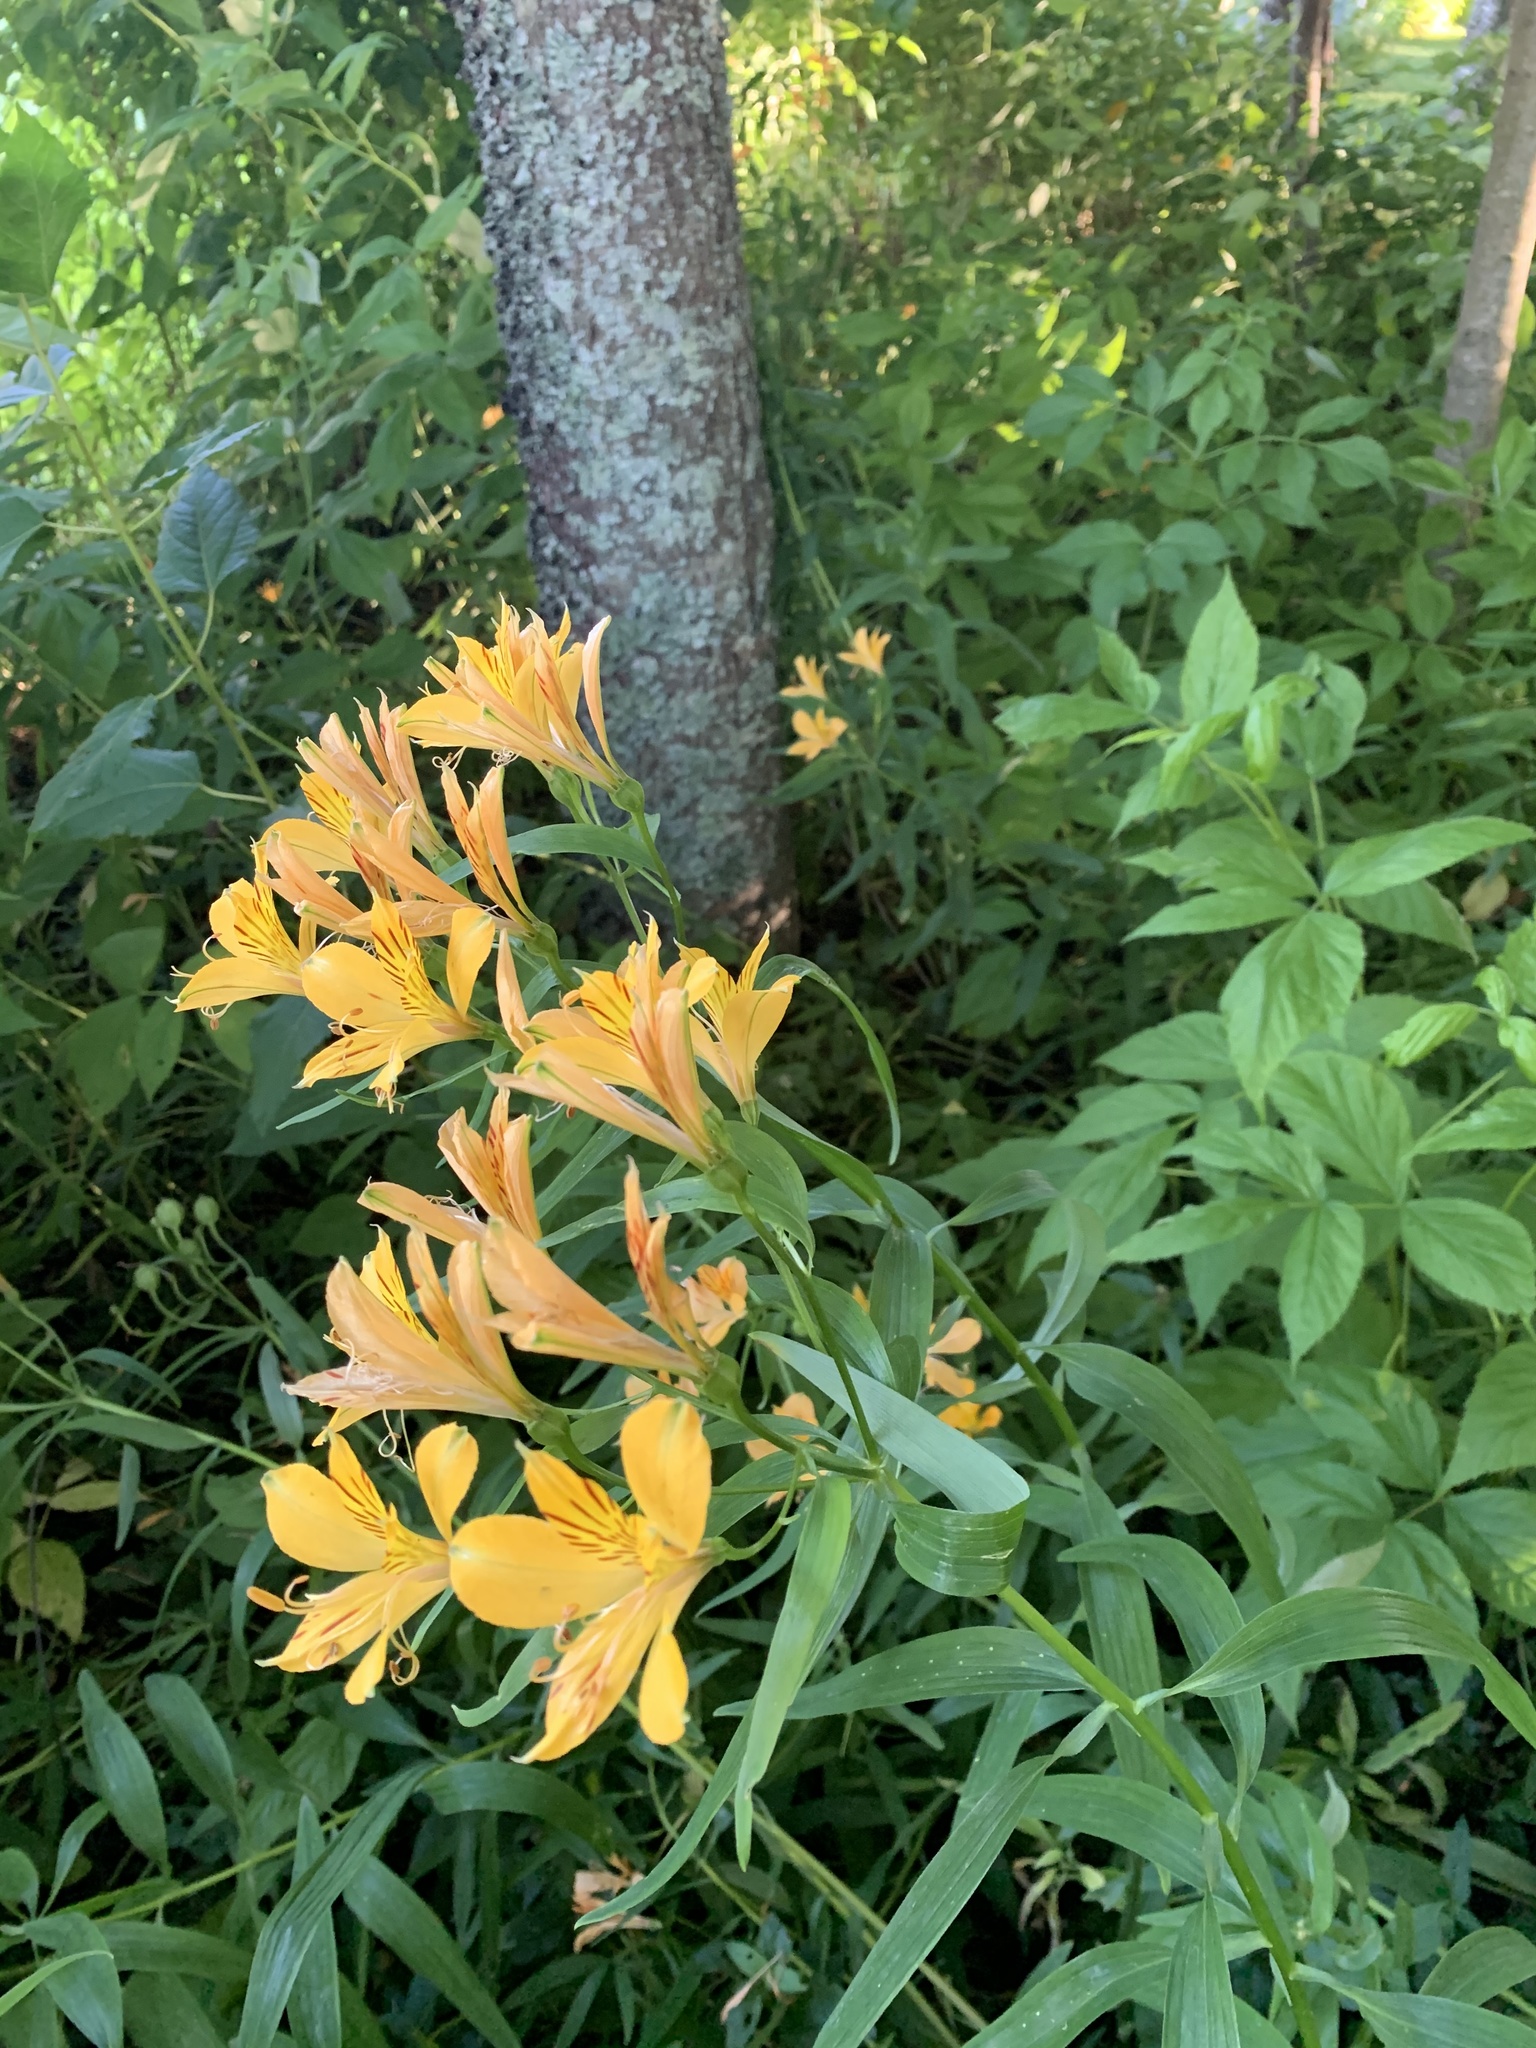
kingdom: Plantae
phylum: Tracheophyta
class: Liliopsida
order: Liliales
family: Alstroemeriaceae
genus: Alstroemeria
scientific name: Alstroemeria aurea
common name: Peruvian lily
